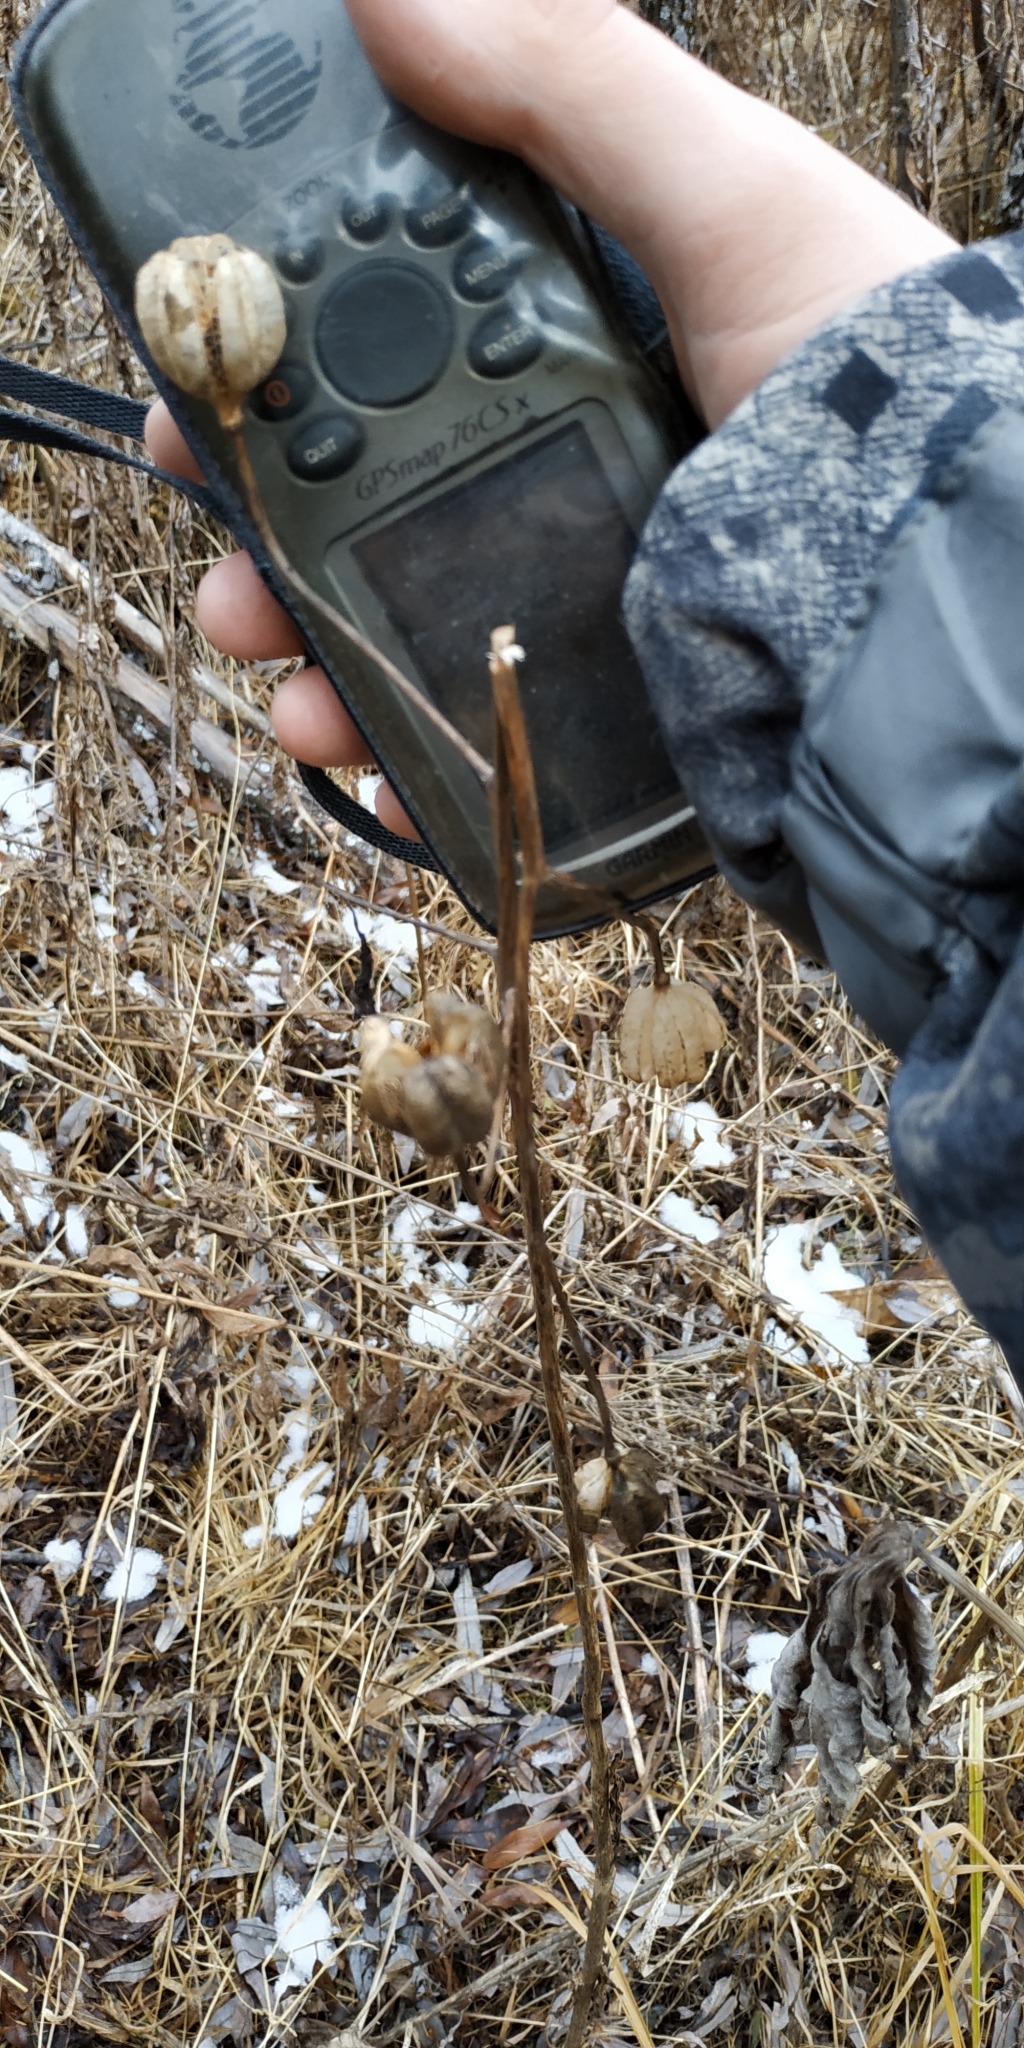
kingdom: Plantae
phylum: Tracheophyta
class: Liliopsida
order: Liliales
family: Liliaceae
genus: Lilium
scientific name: Lilium martagon
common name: Martagon lily
